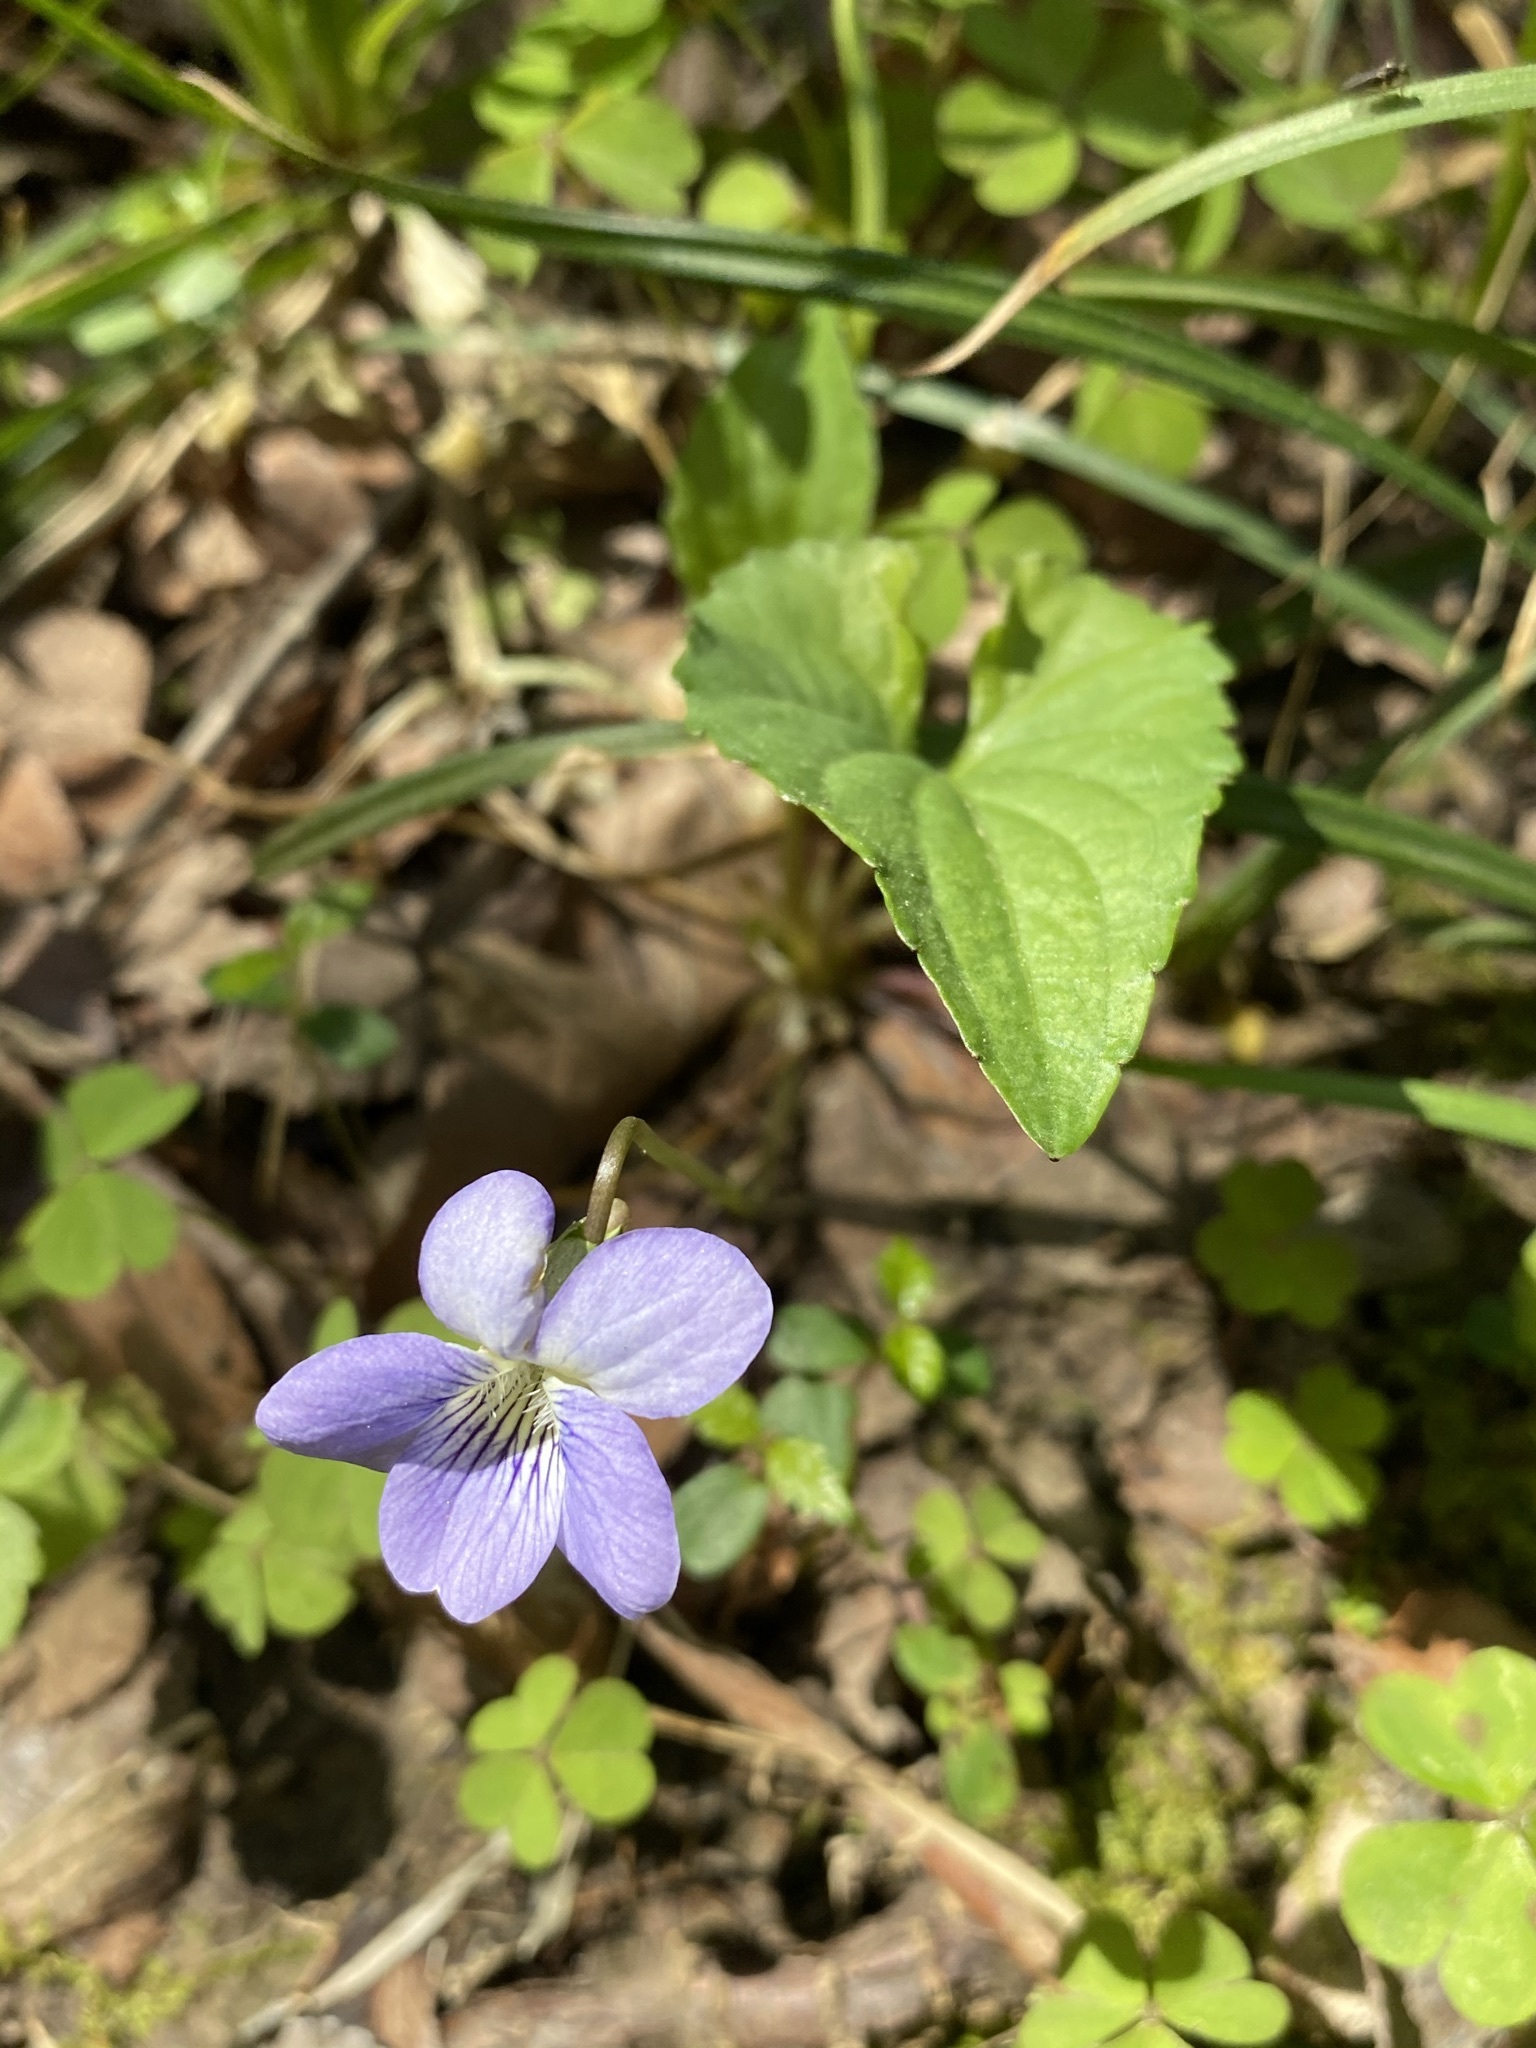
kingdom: Plantae
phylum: Tracheophyta
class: Magnoliopsida
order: Malpighiales
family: Violaceae
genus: Viola
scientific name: Viola missouriensis
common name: Missouri violet
